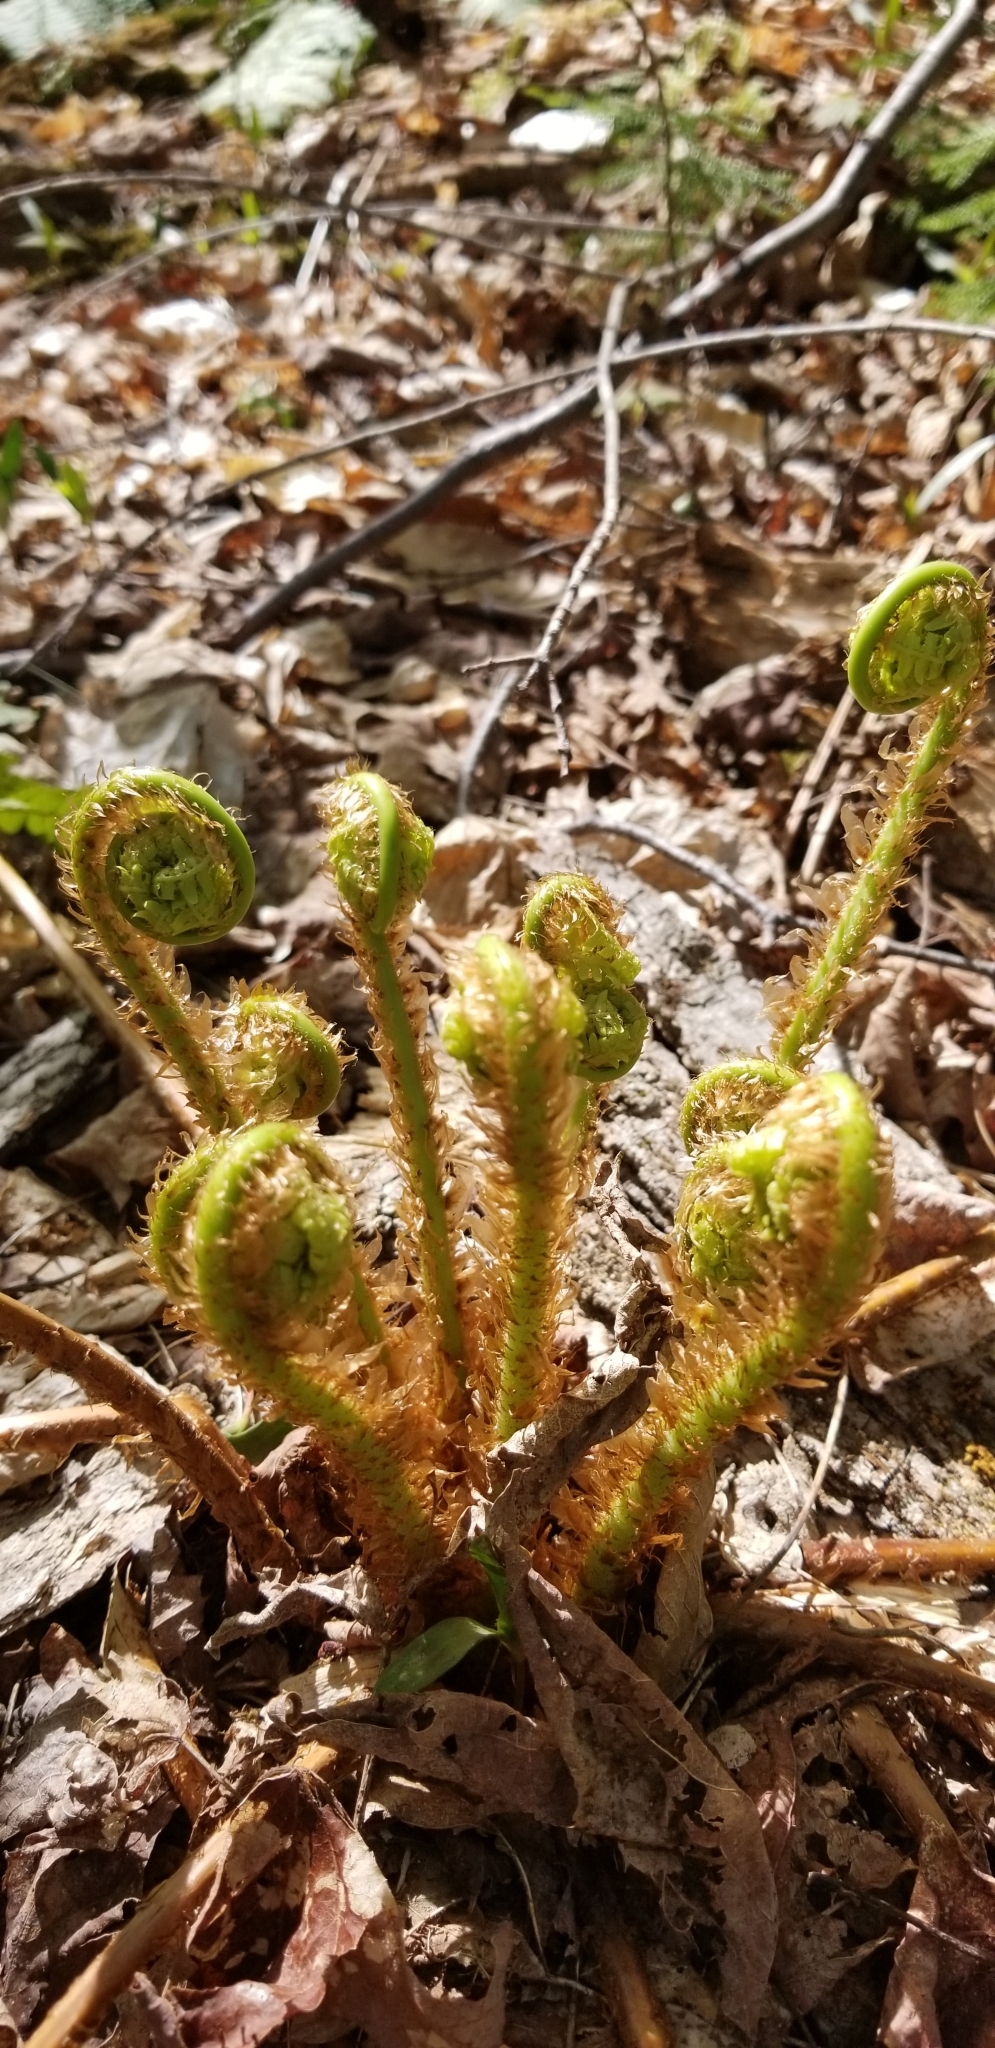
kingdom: Plantae
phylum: Tracheophyta
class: Polypodiopsida
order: Polypodiales
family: Dryopteridaceae
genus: Dryopteris
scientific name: Dryopteris marginalis
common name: Marginal wood fern
